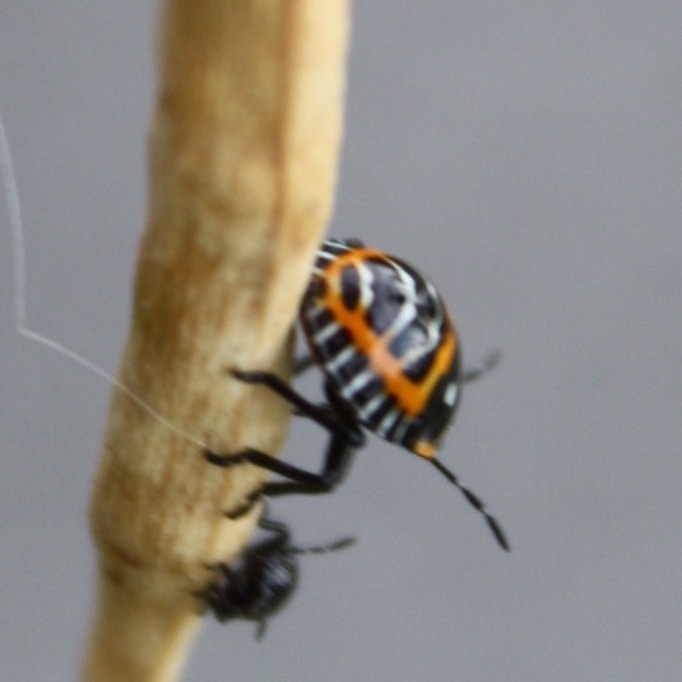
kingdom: Animalia
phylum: Arthropoda
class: Insecta
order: Hemiptera
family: Pentatomidae
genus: Murgantia
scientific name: Murgantia histrionica
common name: Harlequin bug
